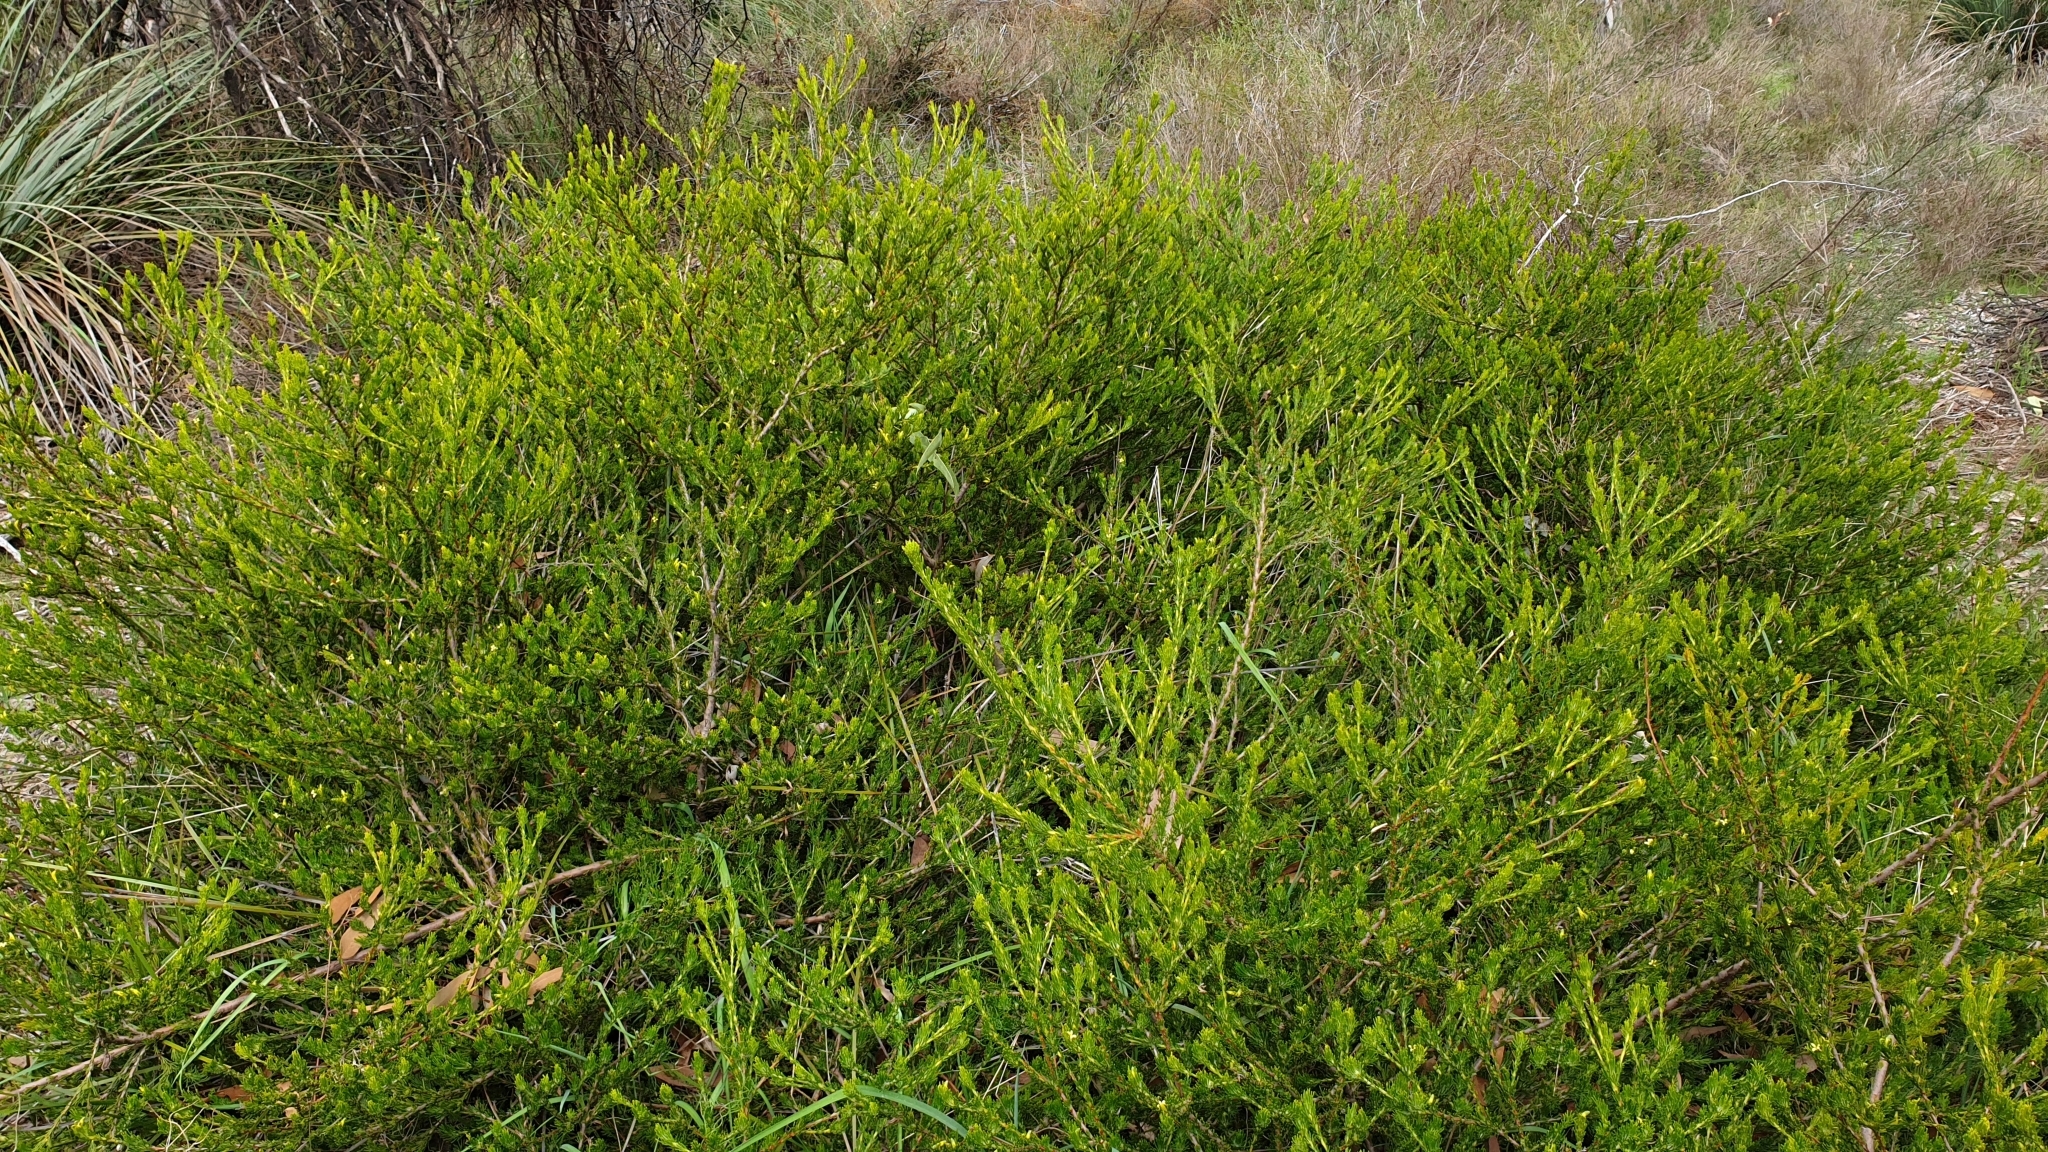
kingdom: Plantae
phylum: Tracheophyta
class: Magnoliopsida
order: Proteales
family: Proteaceae
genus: Adenanthos
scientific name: Adenanthos terminalis
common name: Yellow gland-flower
